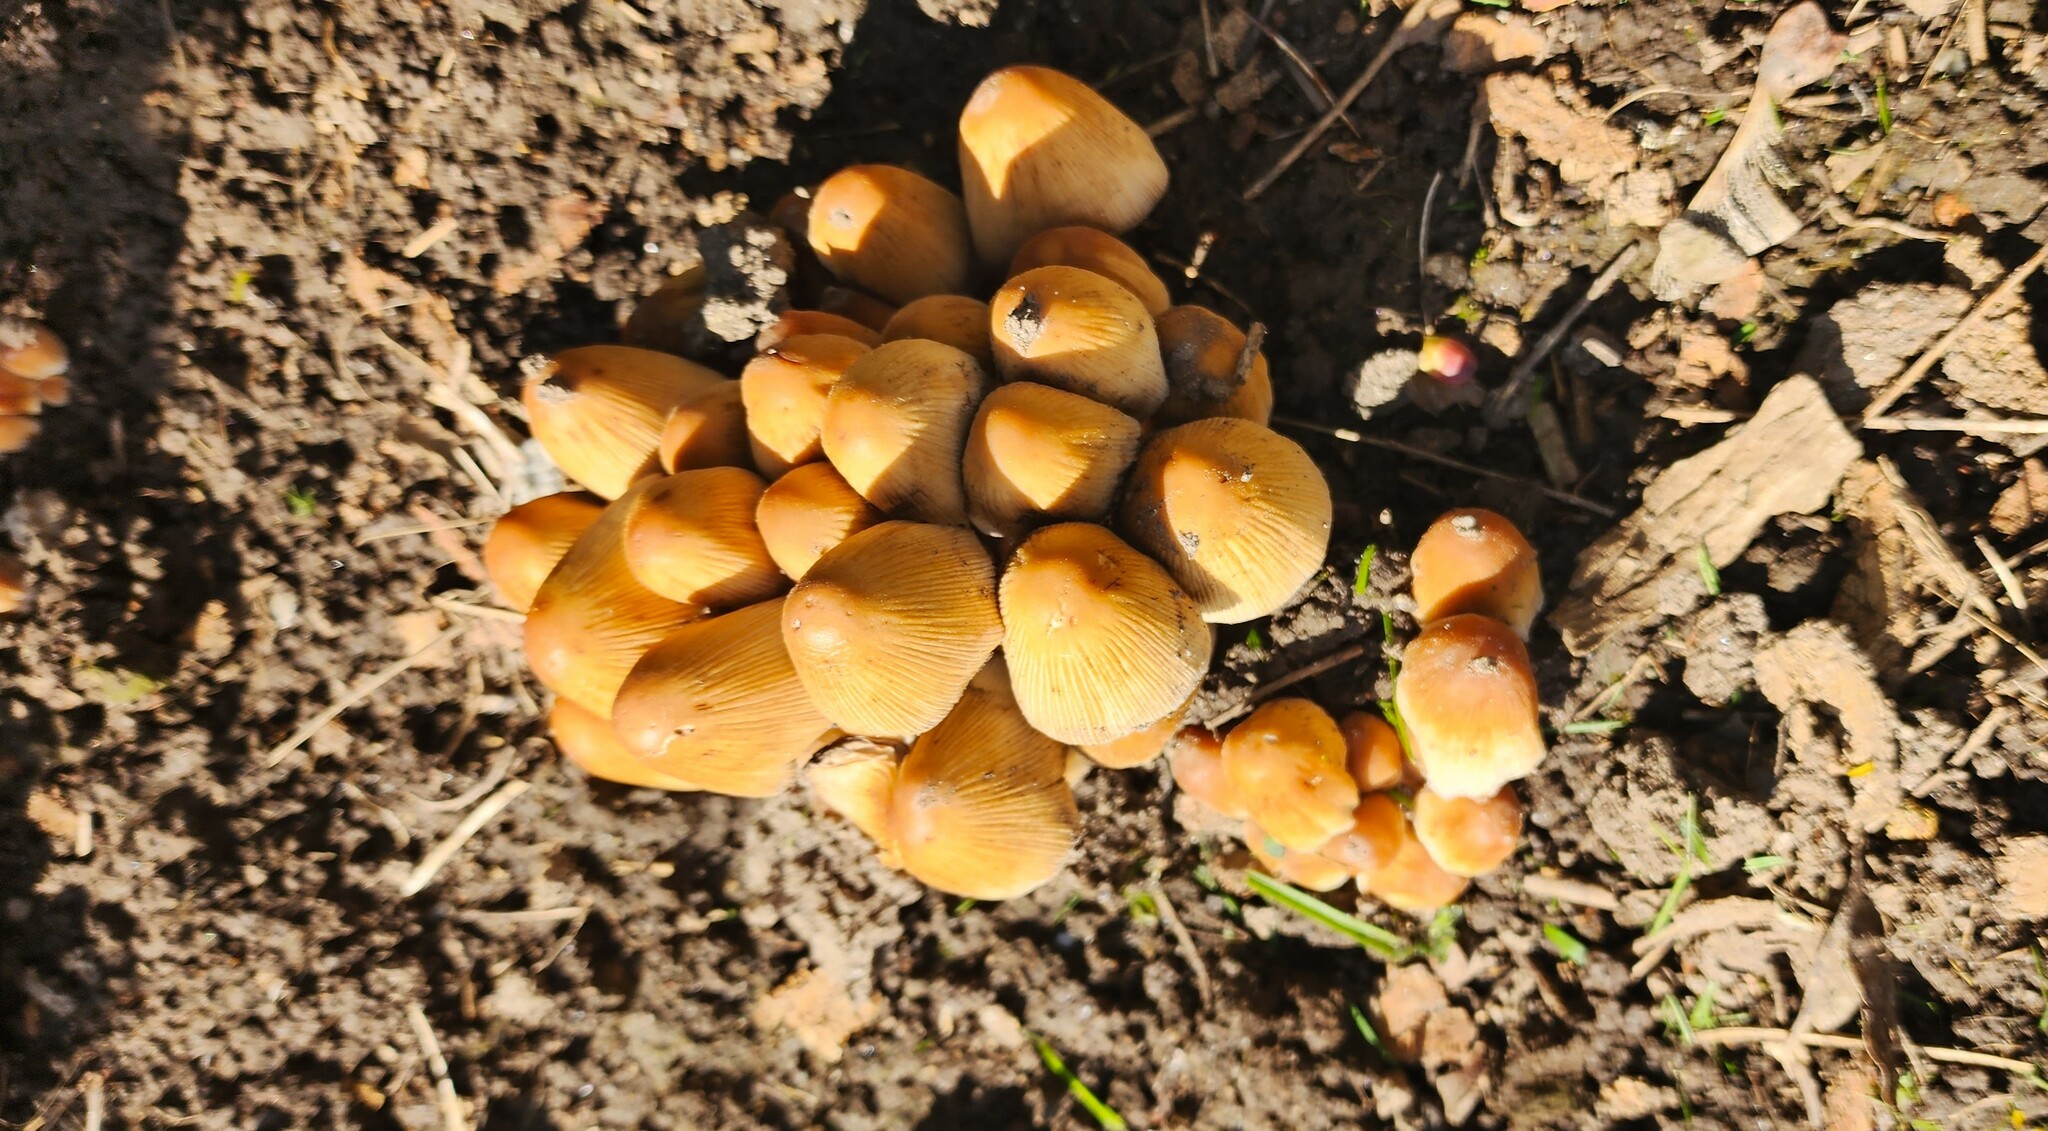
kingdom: Fungi
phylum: Basidiomycota
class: Agaricomycetes
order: Agaricales
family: Psathyrellaceae
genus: Coprinellus
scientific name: Coprinellus micaceus
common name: Glistening ink-cap
